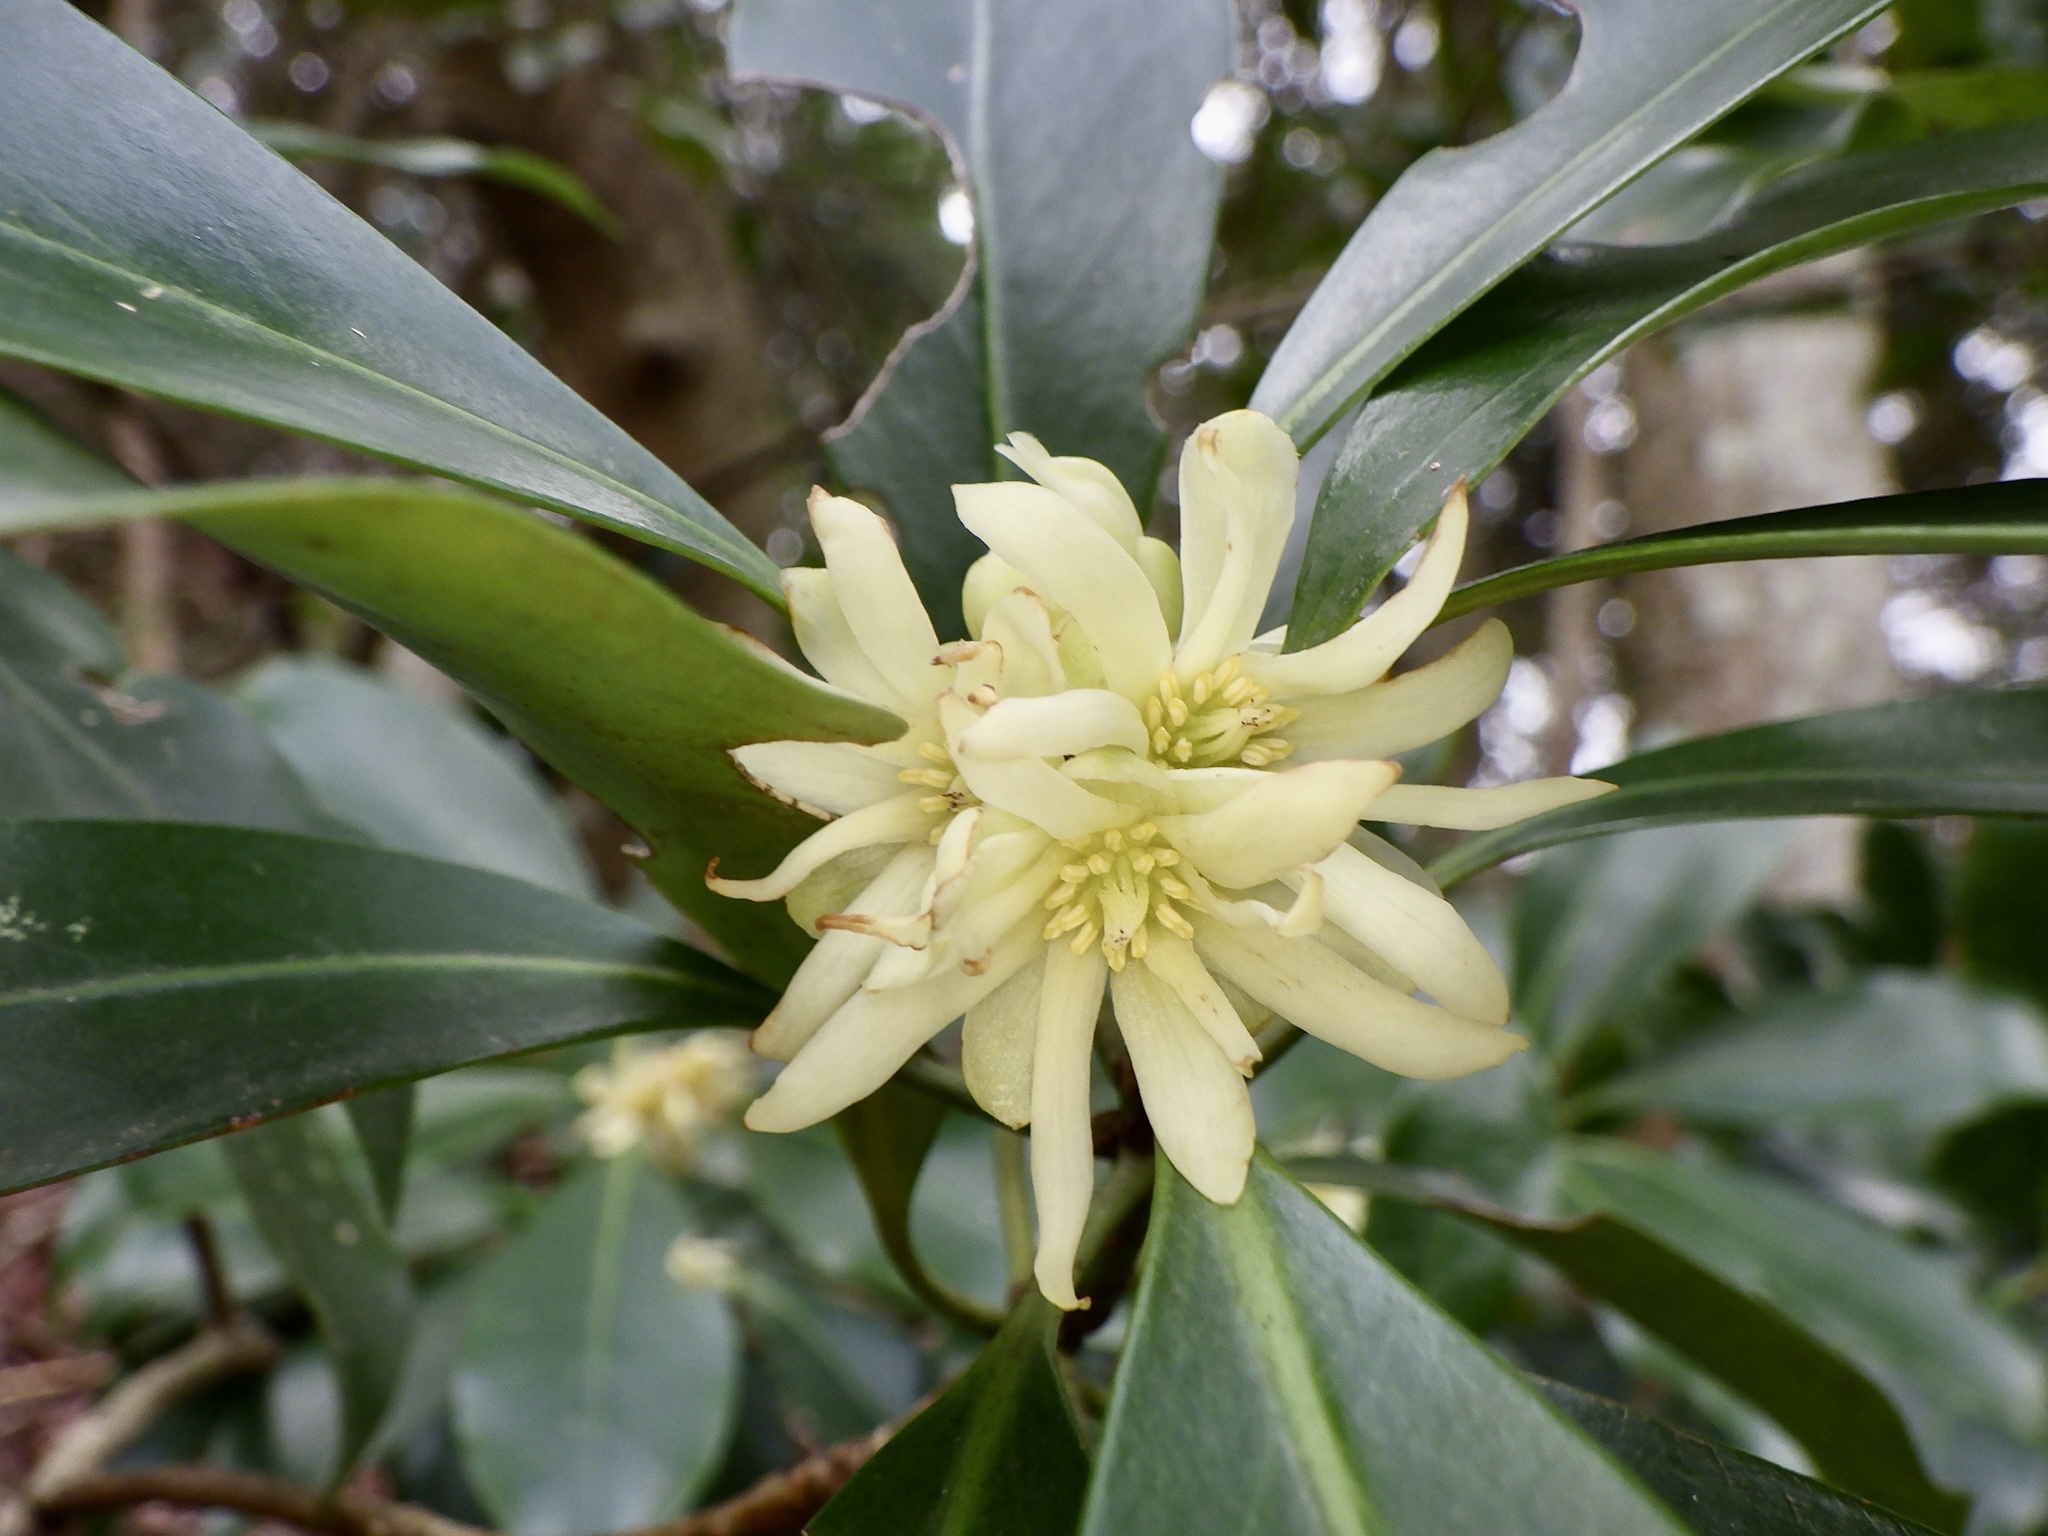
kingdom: Plantae
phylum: Tracheophyta
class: Magnoliopsida
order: Austrobaileyales
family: Schisandraceae
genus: Illicium
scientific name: Illicium anisatum
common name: Sacred anisetree
